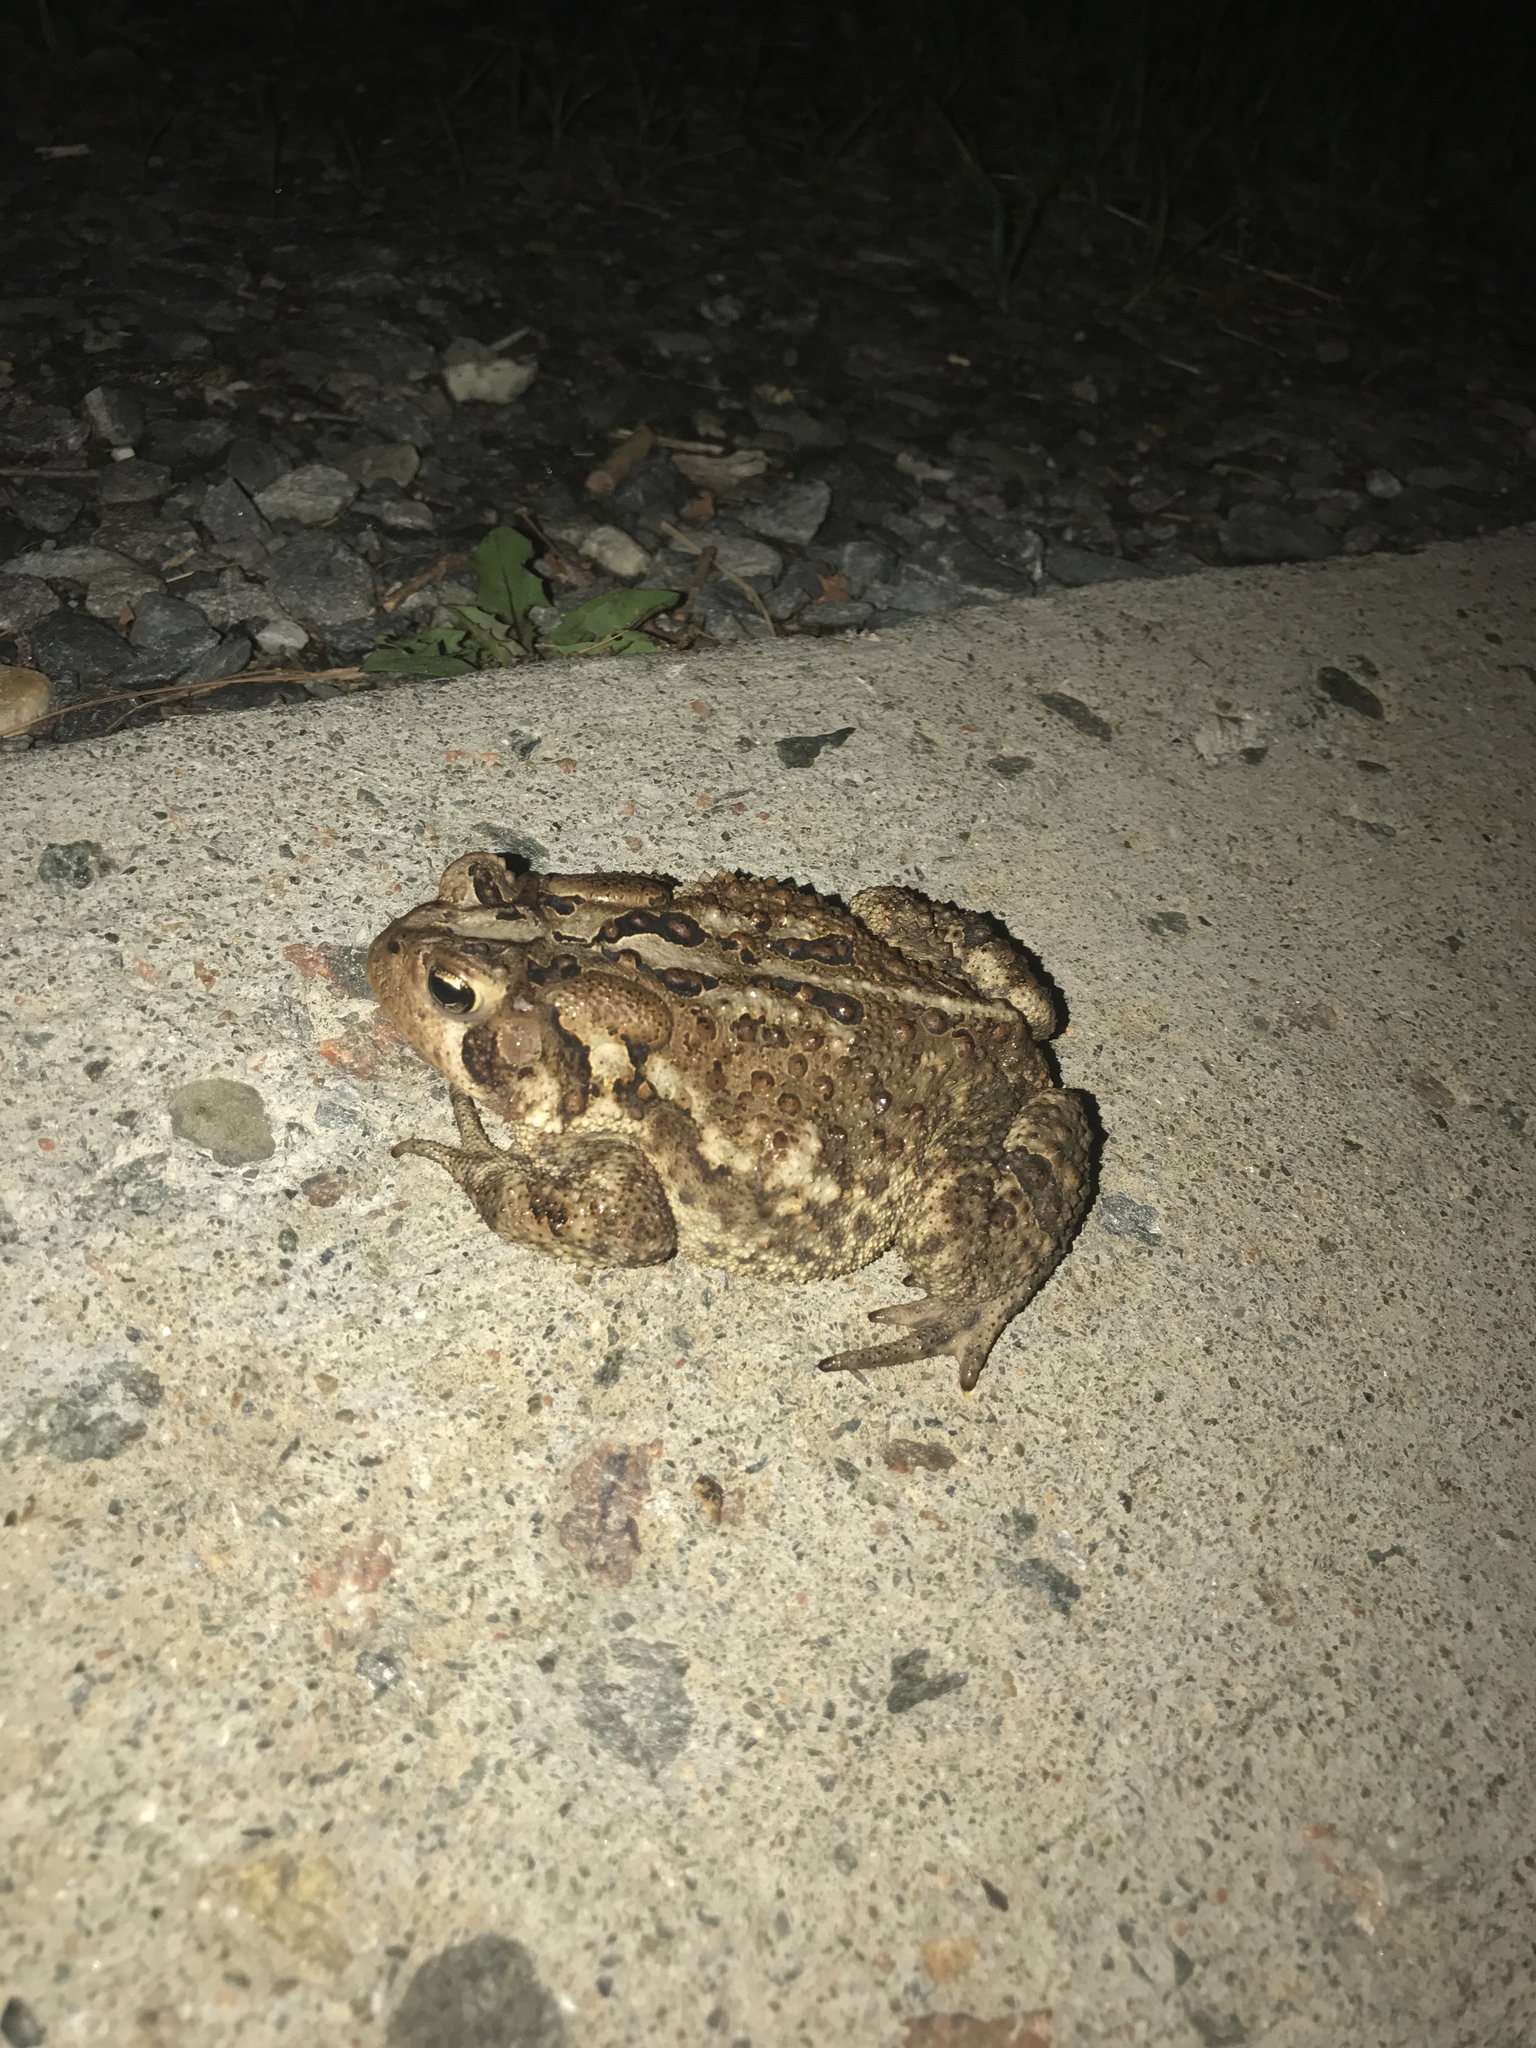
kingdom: Animalia
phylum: Chordata
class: Amphibia
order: Anura
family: Bufonidae
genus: Anaxyrus
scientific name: Anaxyrus americanus
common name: American toad
